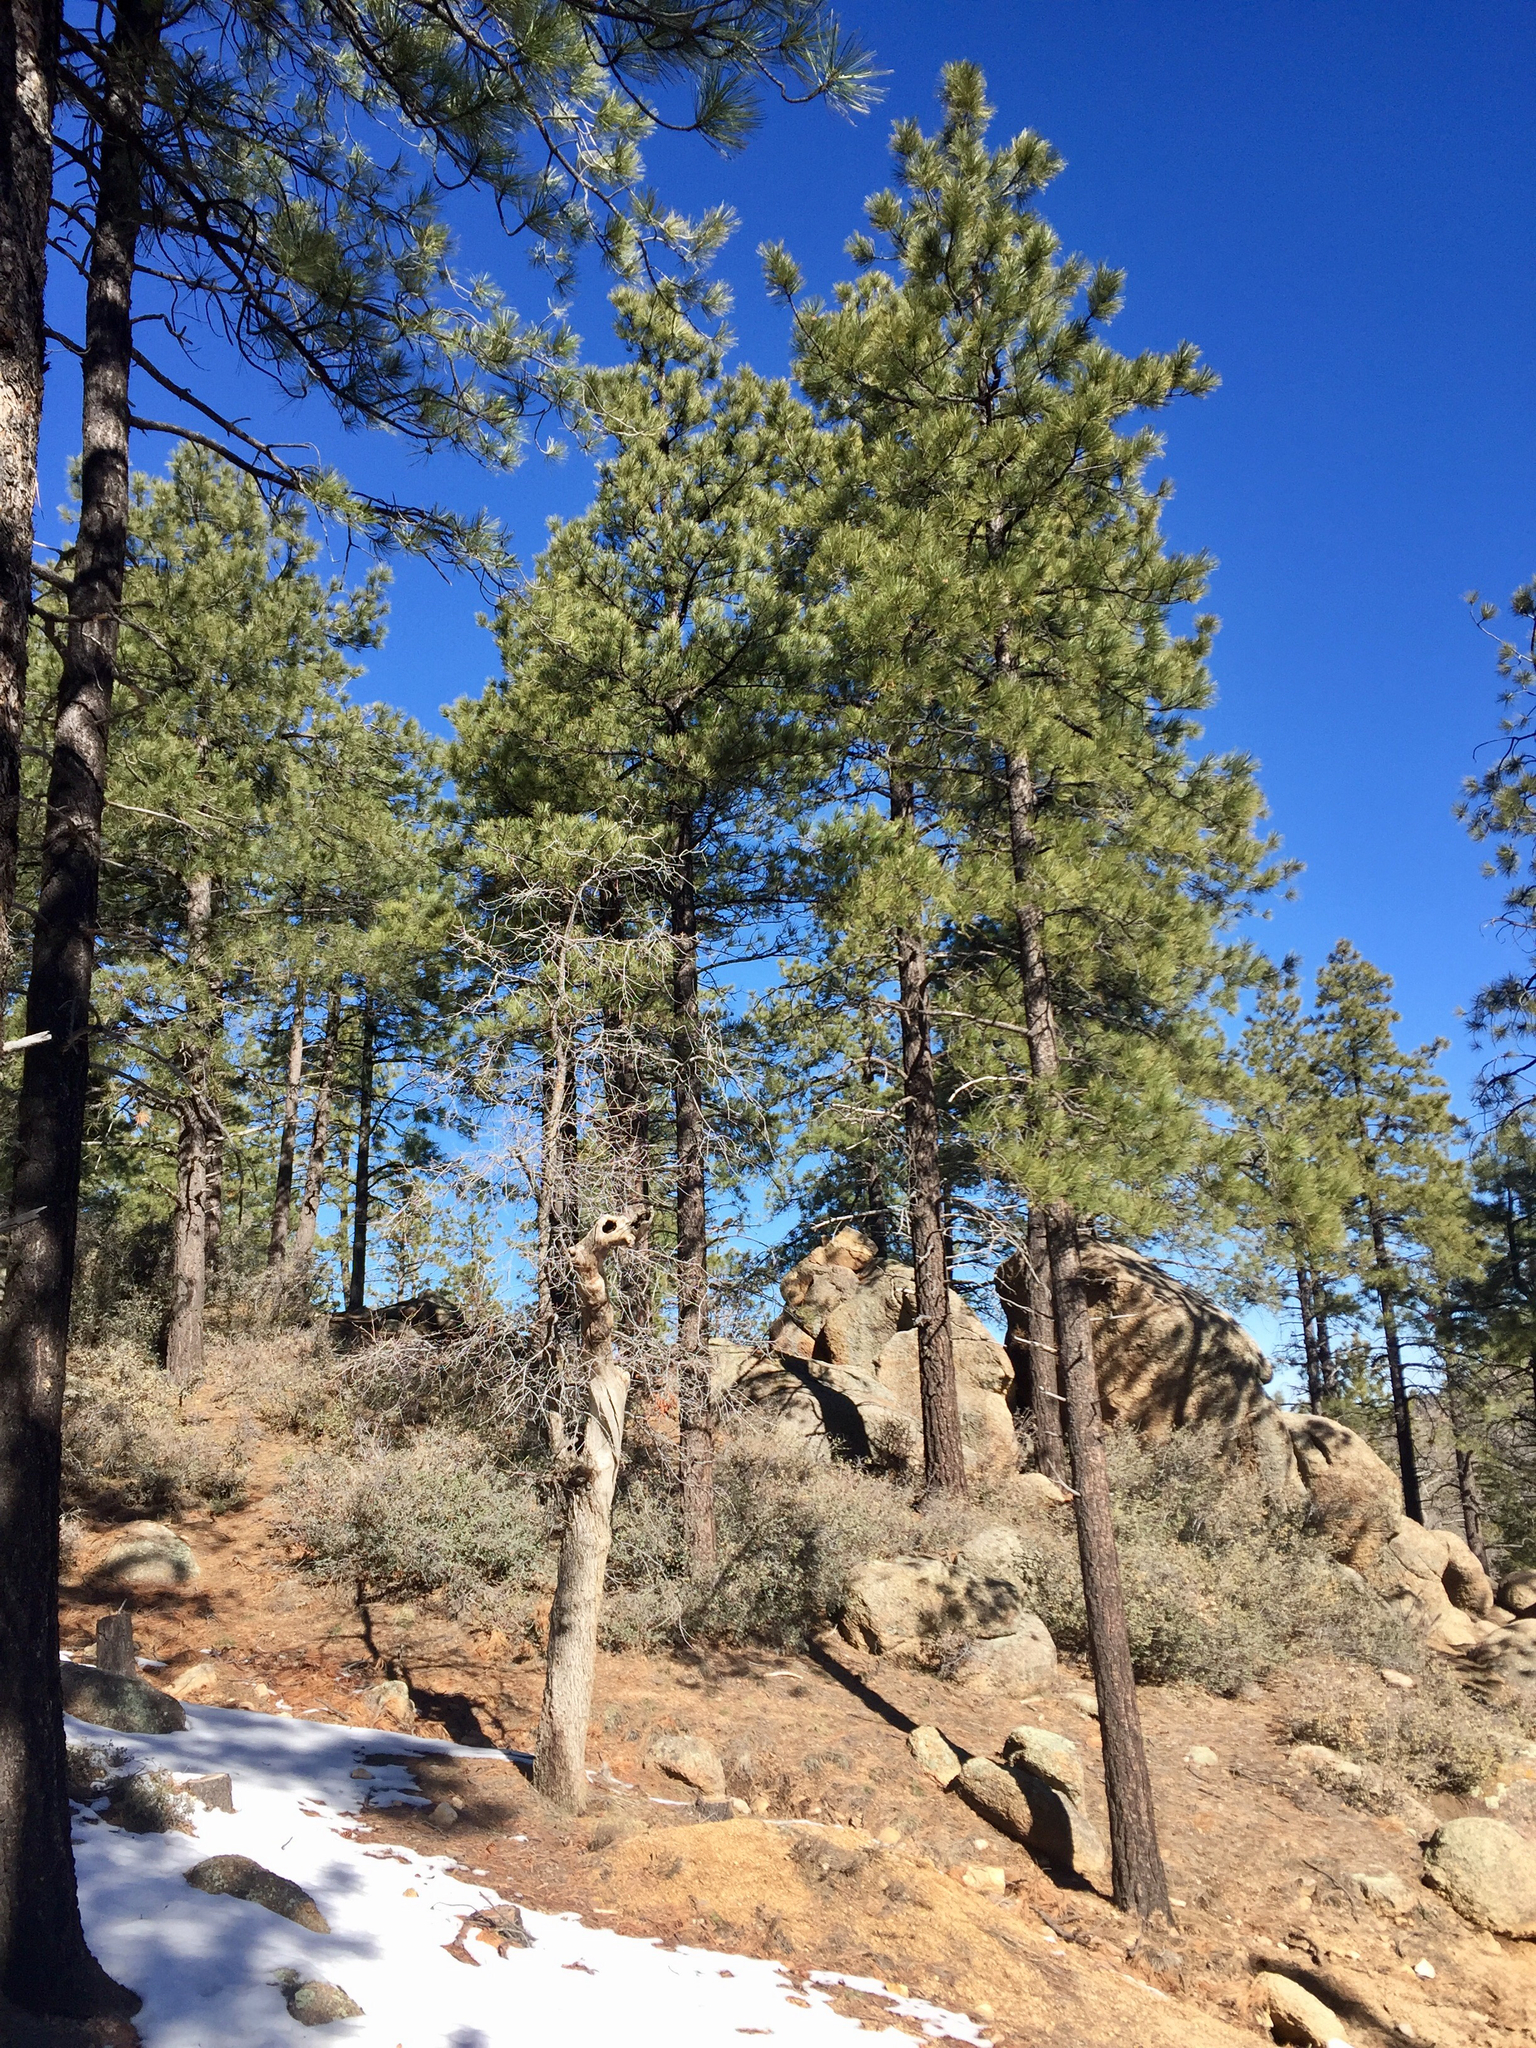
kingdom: Plantae
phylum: Tracheophyta
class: Pinopsida
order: Pinales
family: Pinaceae
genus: Pinus
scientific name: Pinus ponderosa
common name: Western yellow-pine
